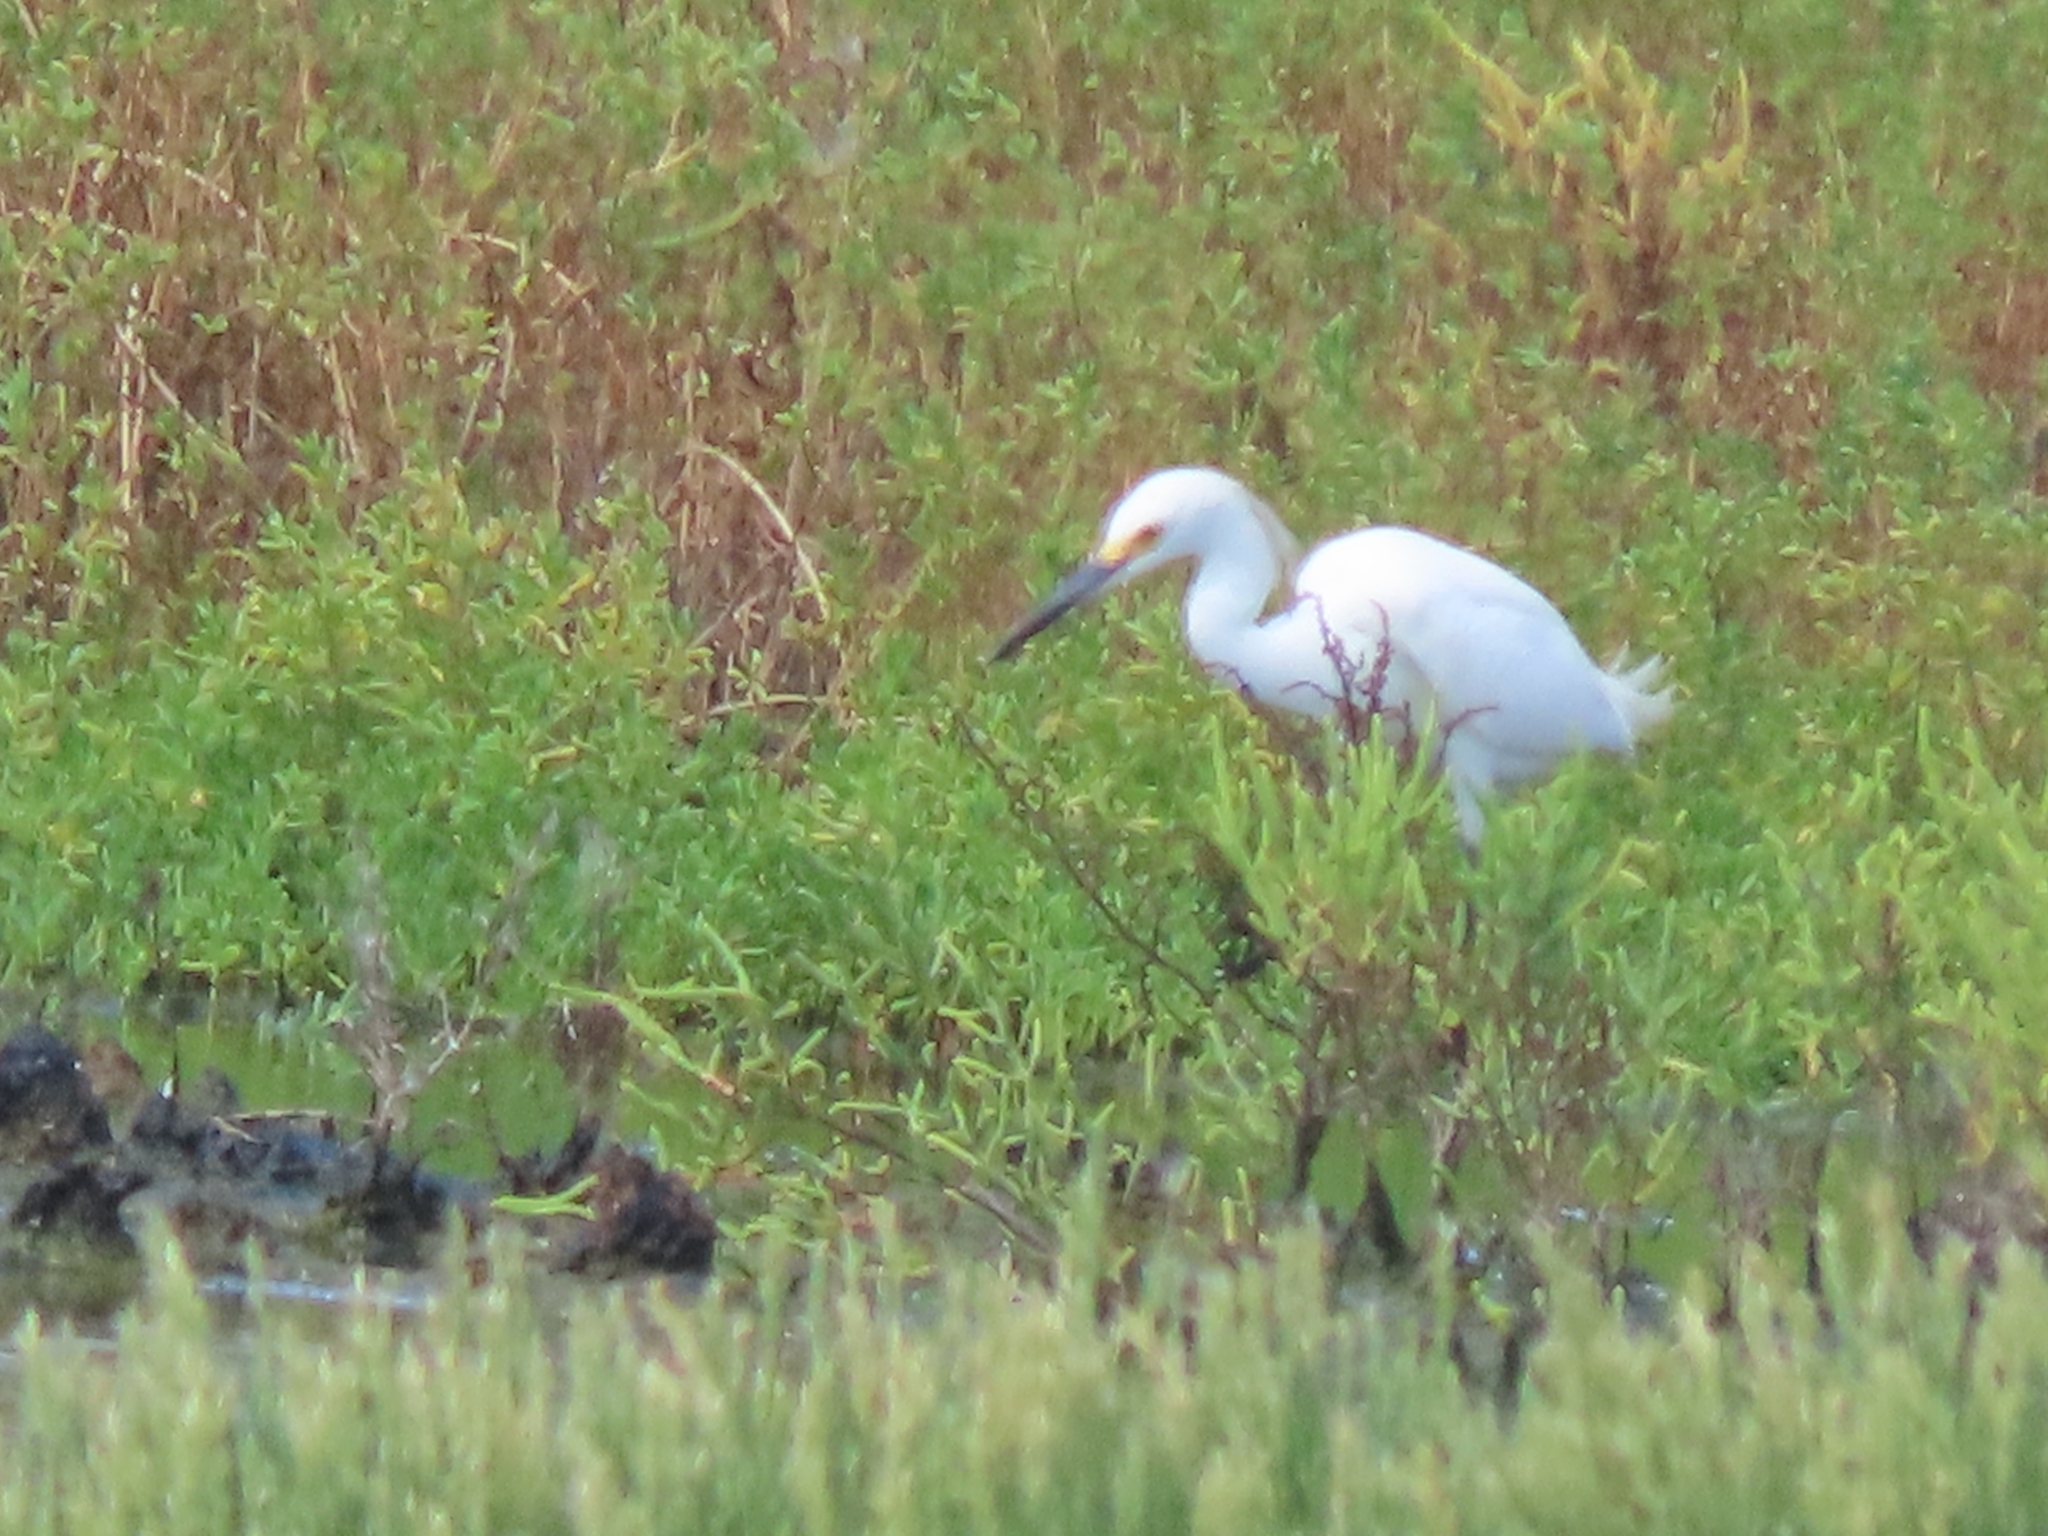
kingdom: Animalia
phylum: Chordata
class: Aves
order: Pelecaniformes
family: Ardeidae
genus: Egretta
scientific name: Egretta thula
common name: Snowy egret
